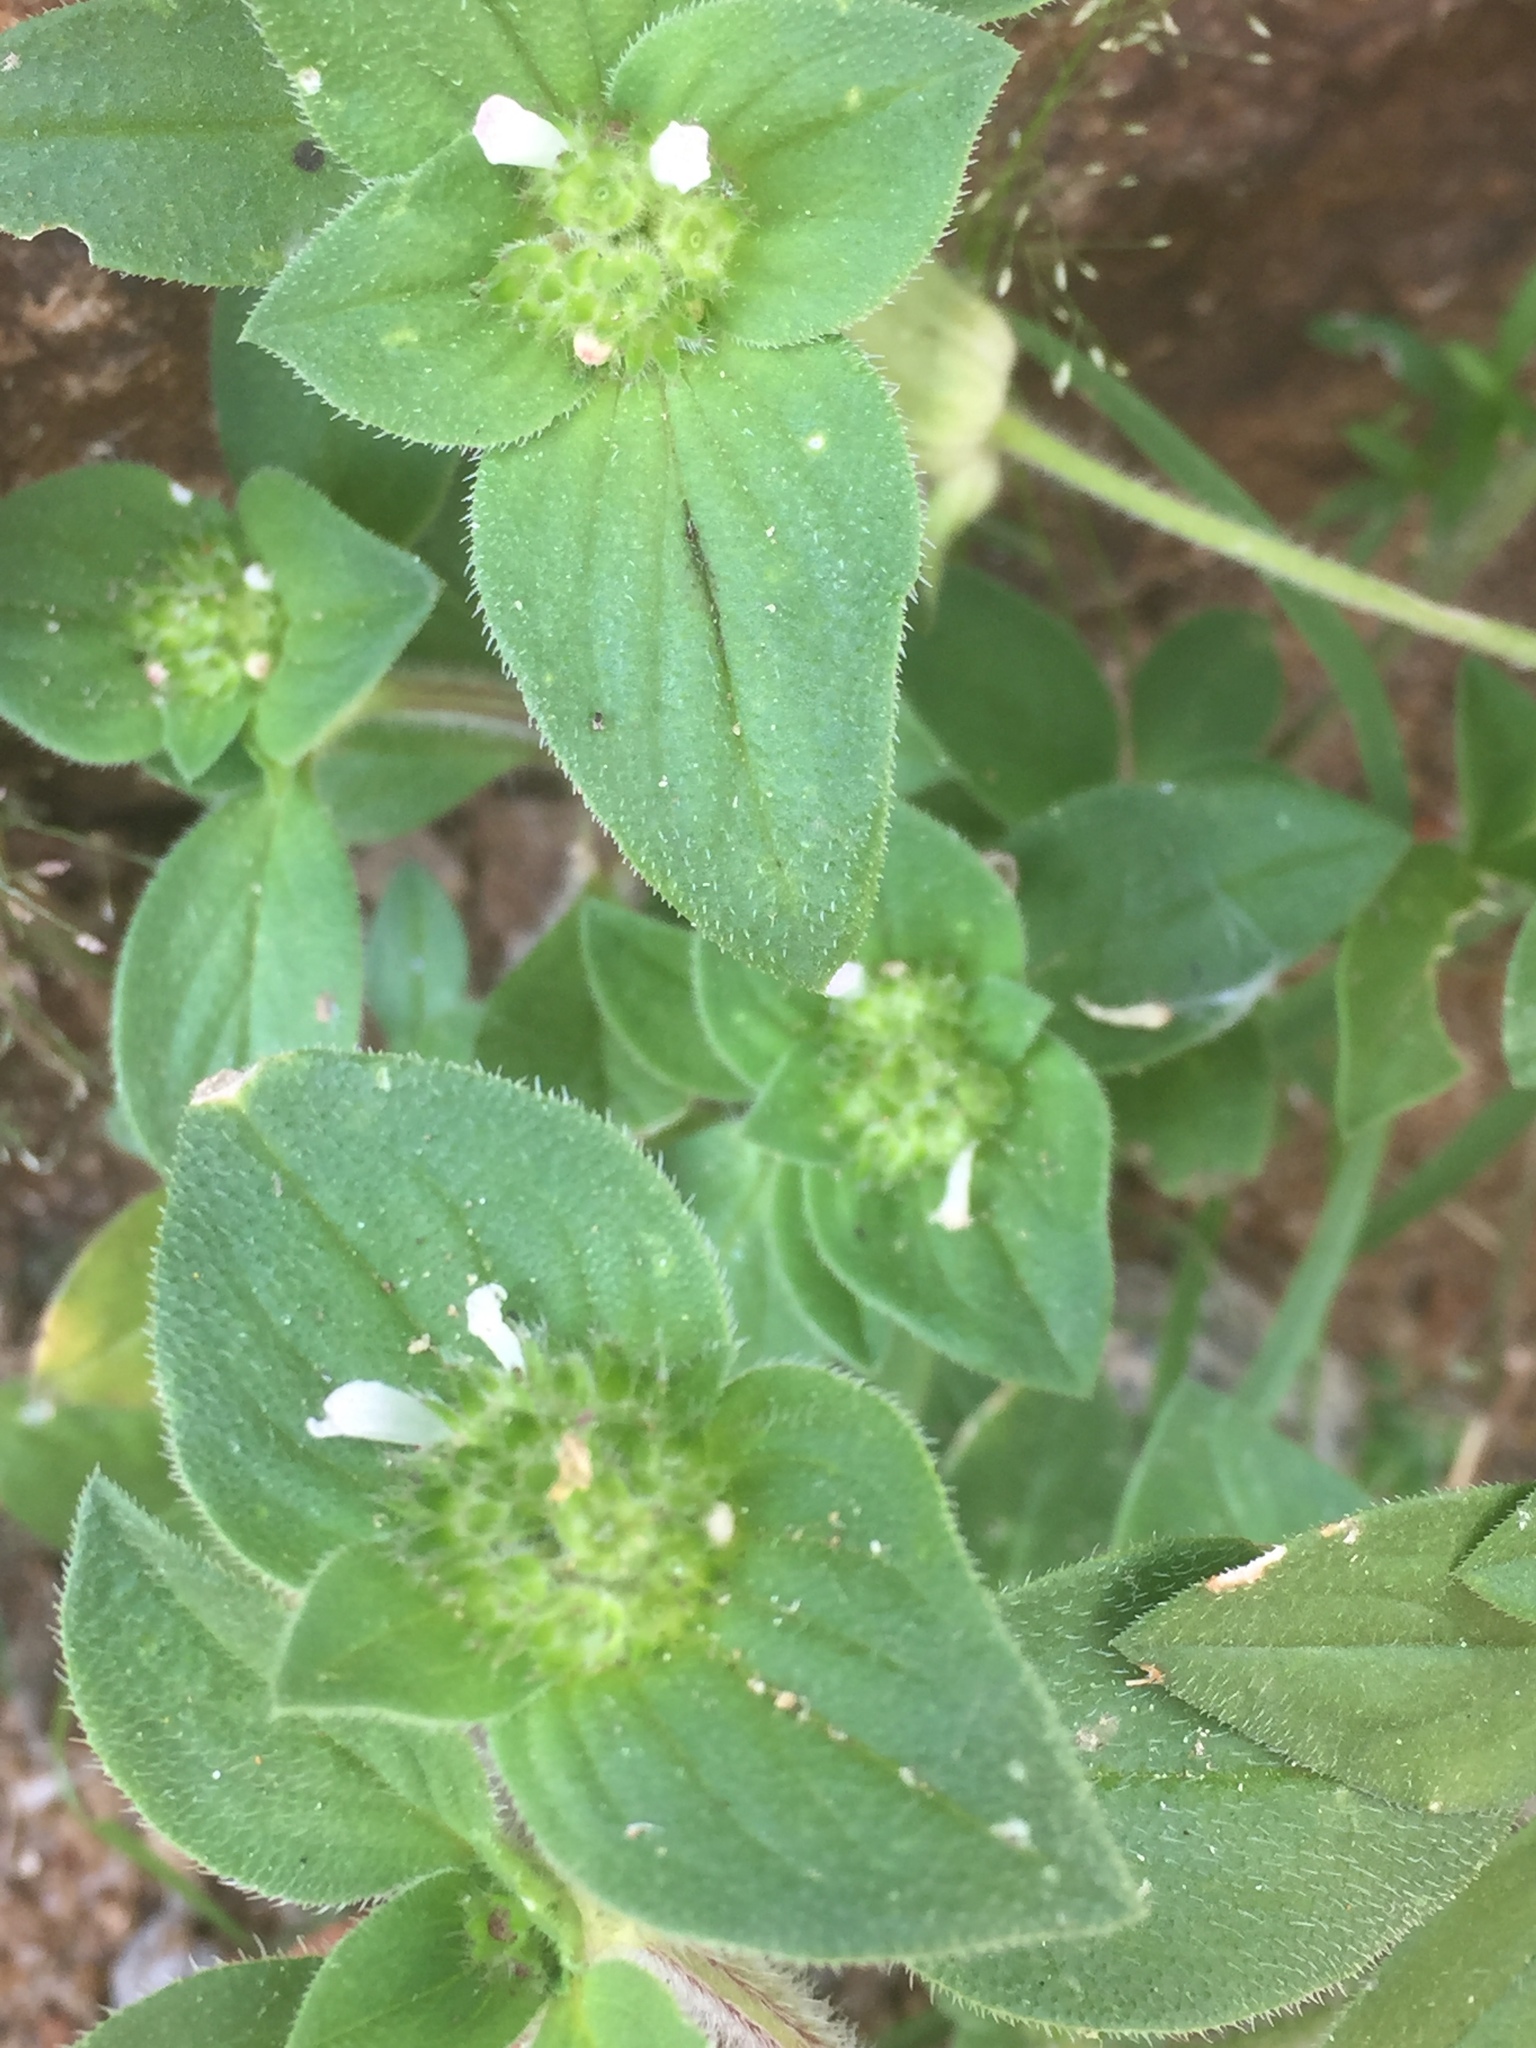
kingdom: Plantae
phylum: Tracheophyta
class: Magnoliopsida
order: Gentianales
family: Rubiaceae
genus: Richardia
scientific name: Richardia scabra
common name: Rough mexican clover
